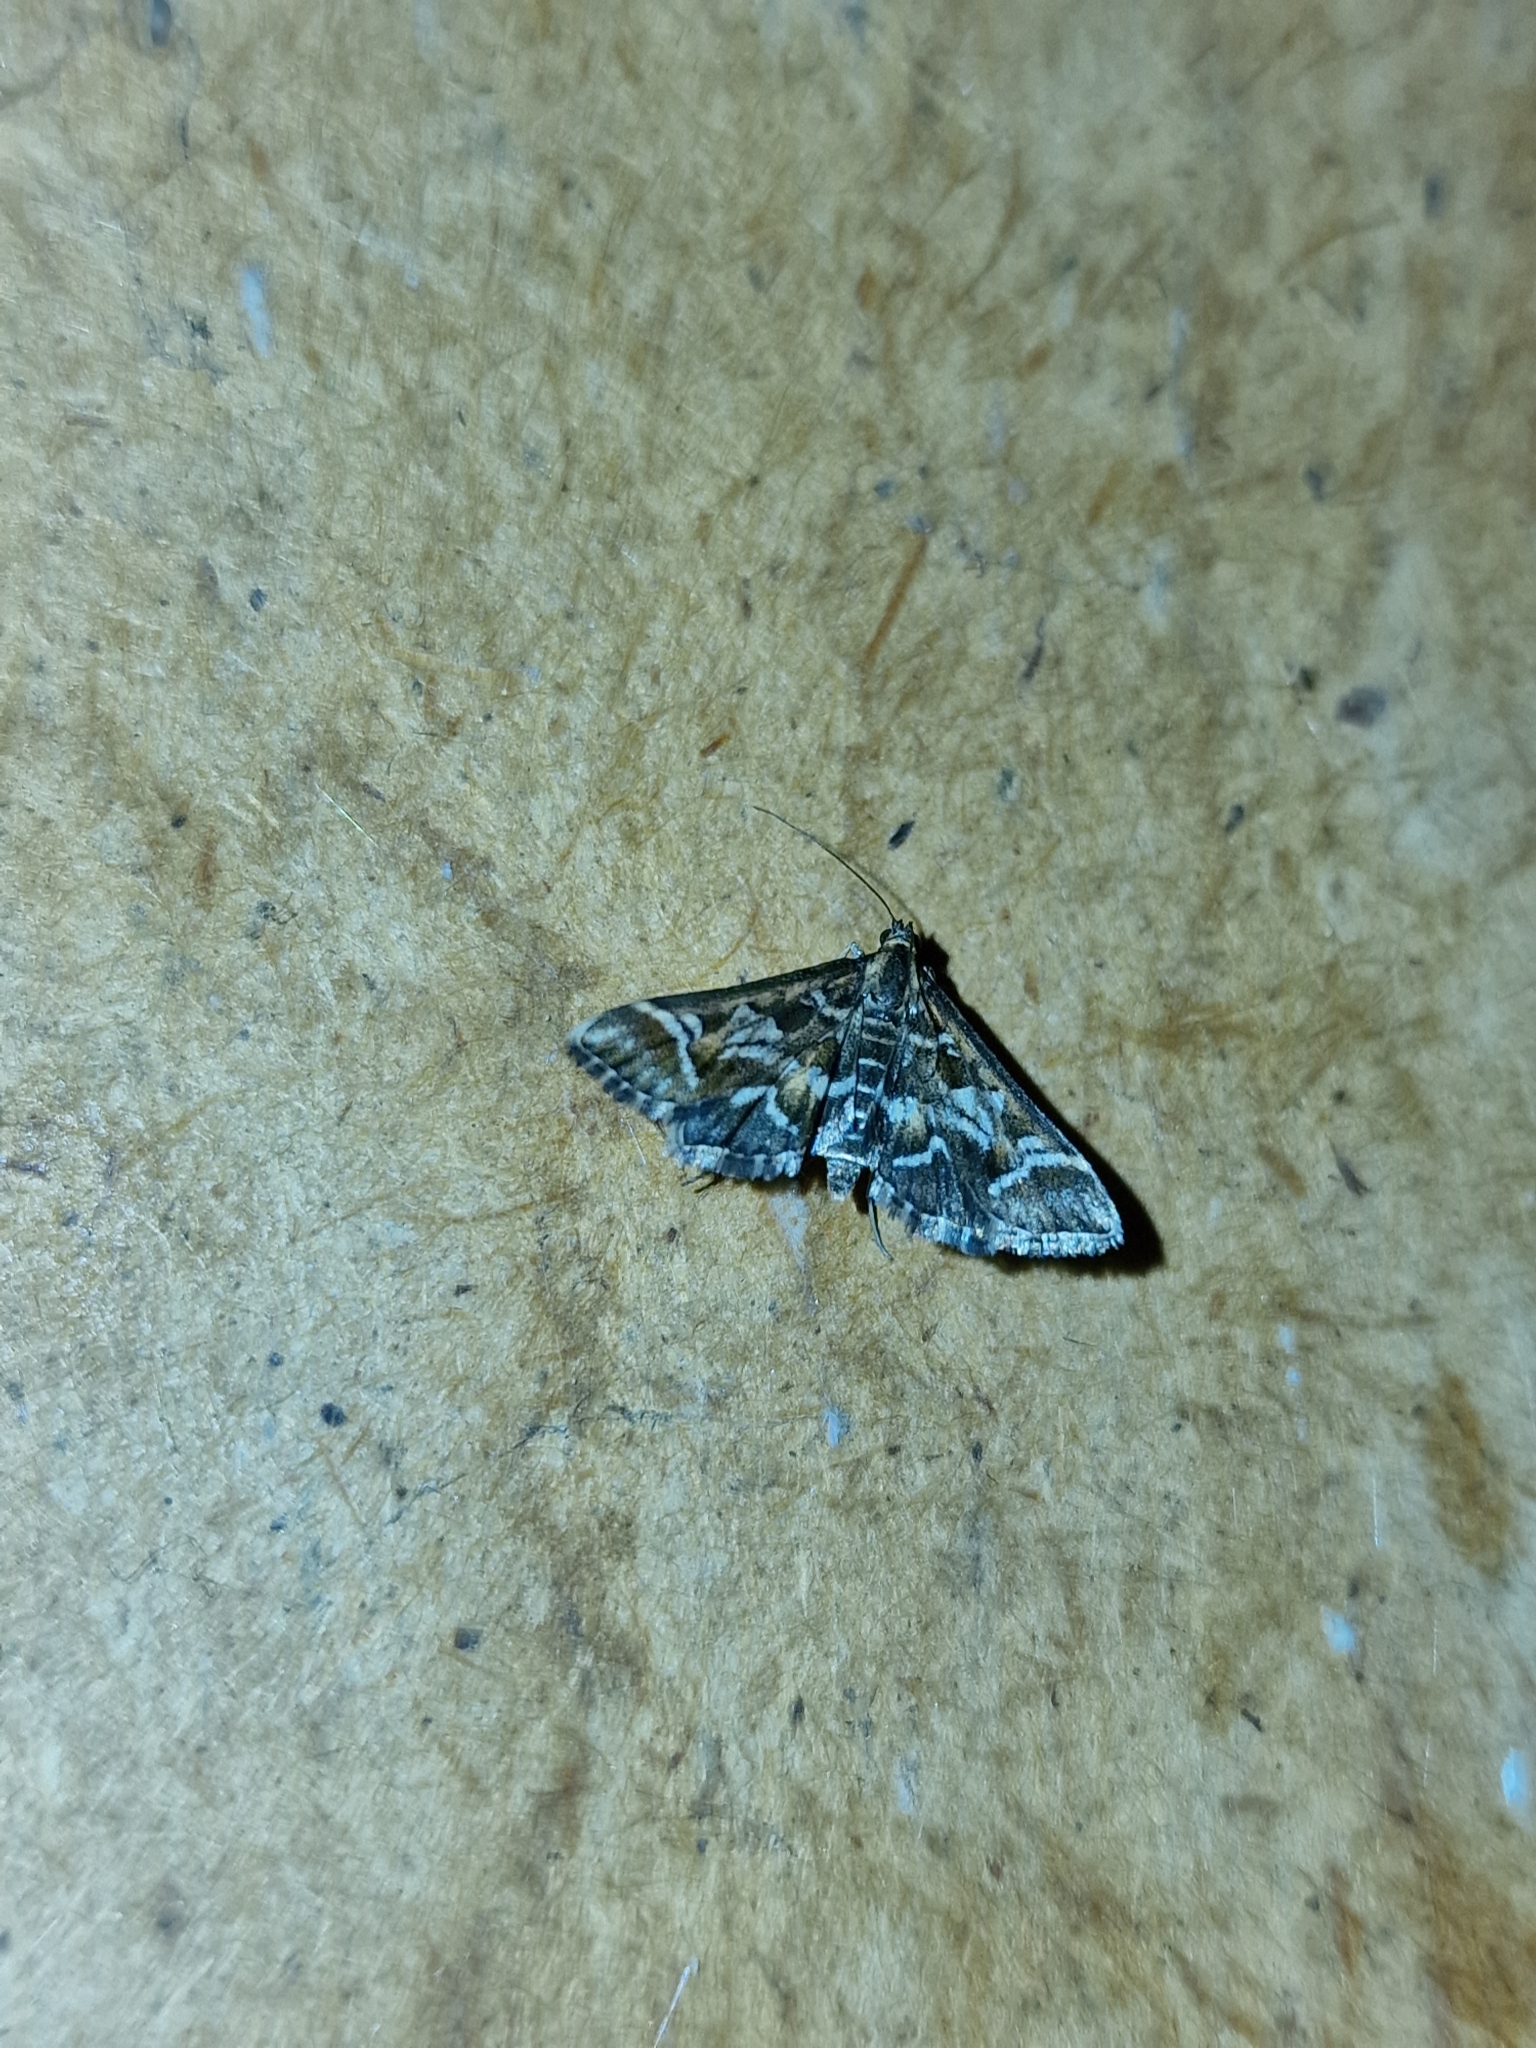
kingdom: Animalia
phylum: Arthropoda
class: Insecta
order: Lepidoptera
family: Crambidae
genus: Diasemia
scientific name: Diasemia reticularis
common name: Lettered china-mark
